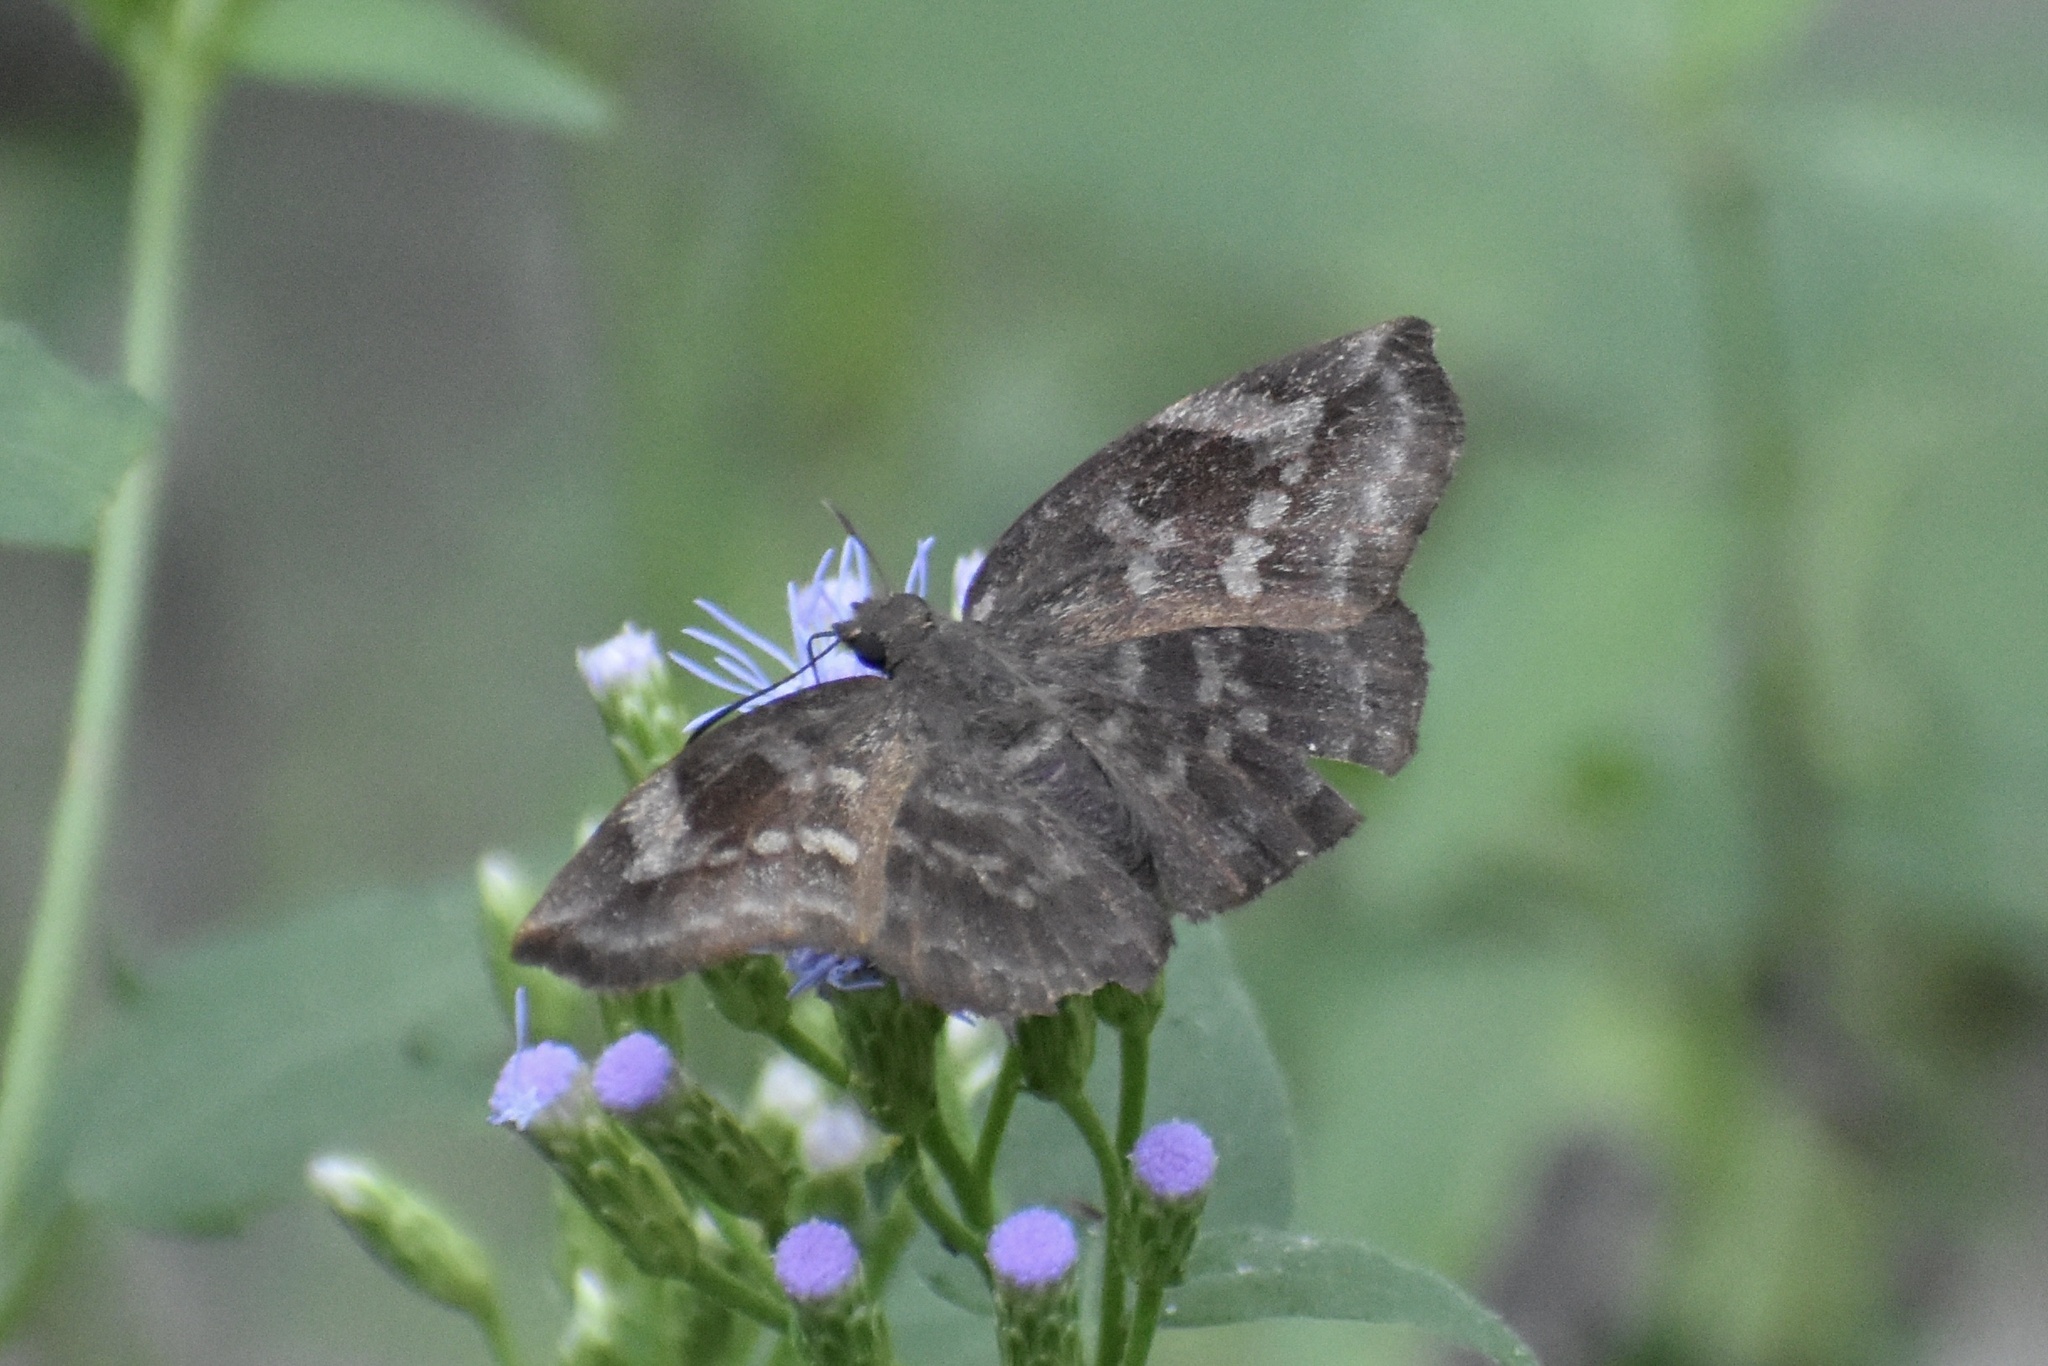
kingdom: Animalia
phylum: Arthropoda
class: Insecta
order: Lepidoptera
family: Hesperiidae
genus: Achlyodes
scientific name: Achlyodes thraso
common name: Sickle-winged skipper
